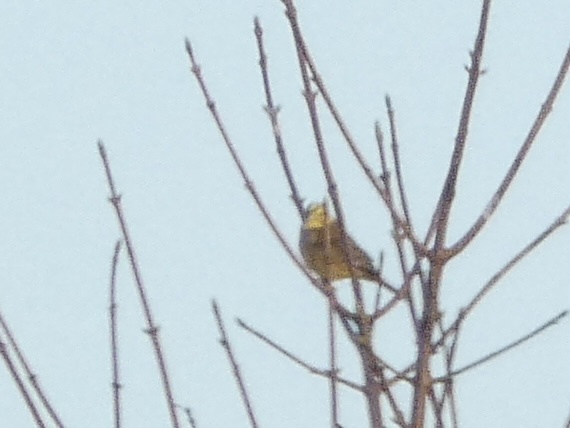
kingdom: Animalia
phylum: Chordata
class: Aves
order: Passeriformes
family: Emberizidae
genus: Emberiza
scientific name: Emberiza citrinella
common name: Yellowhammer
